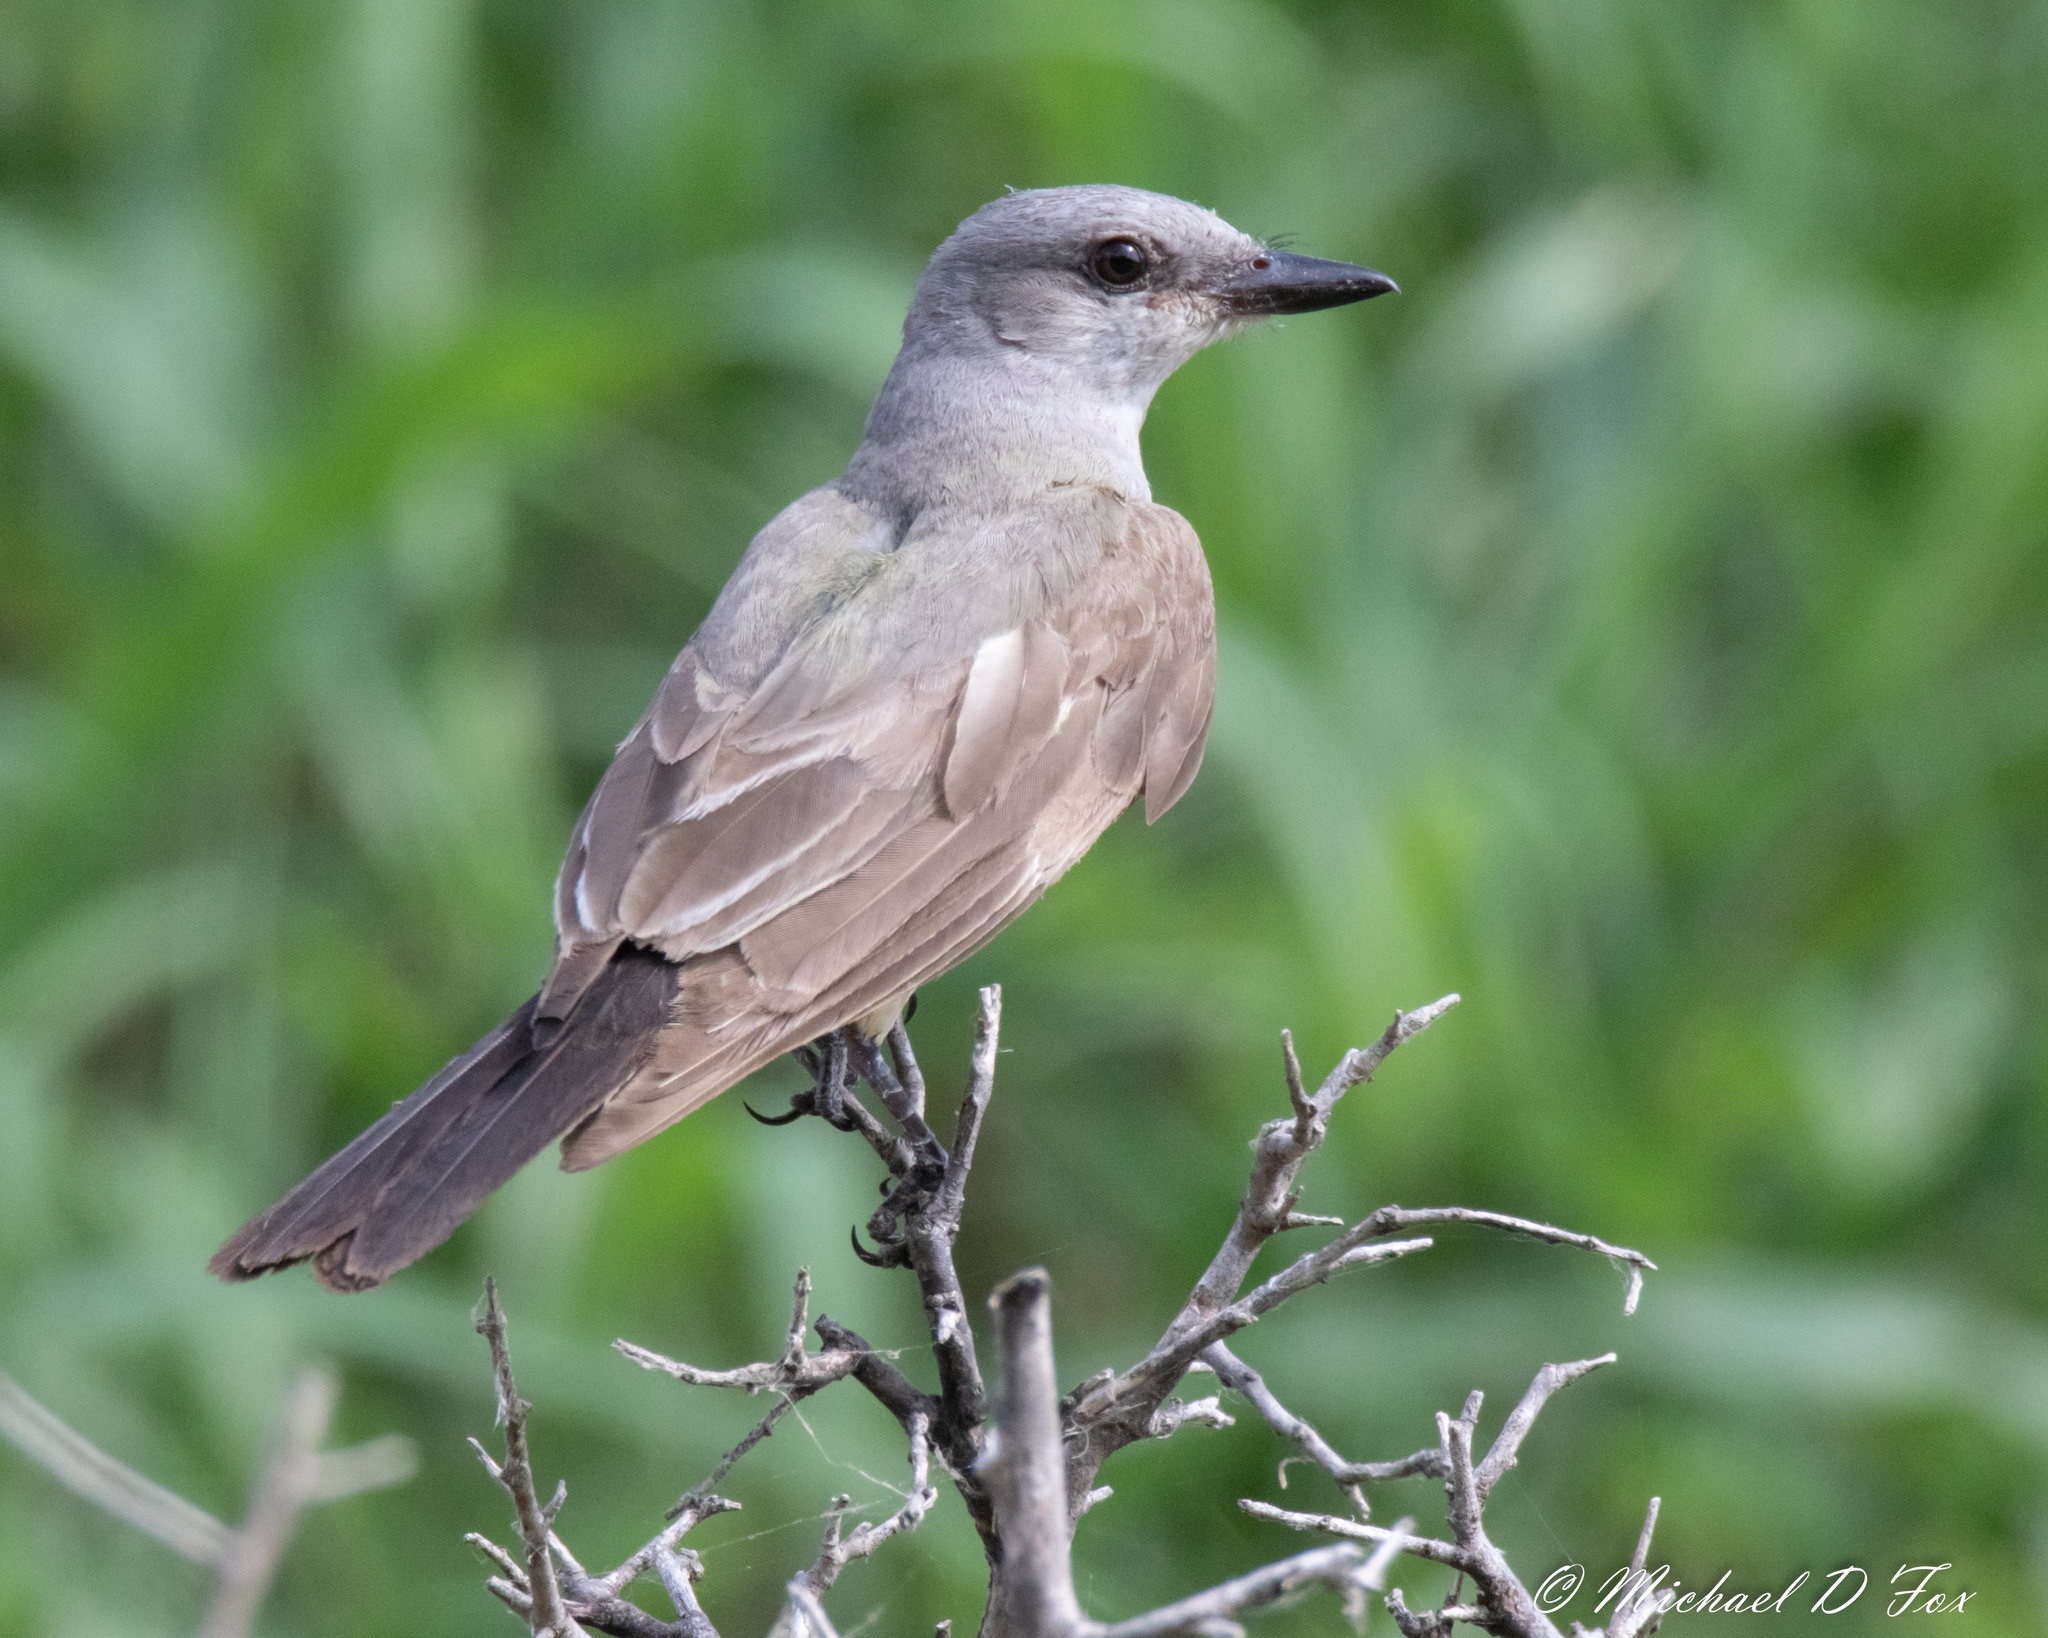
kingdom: Animalia
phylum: Chordata
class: Aves
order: Passeriformes
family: Tyrannidae
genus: Tyrannus
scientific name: Tyrannus verticalis
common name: Western kingbird
